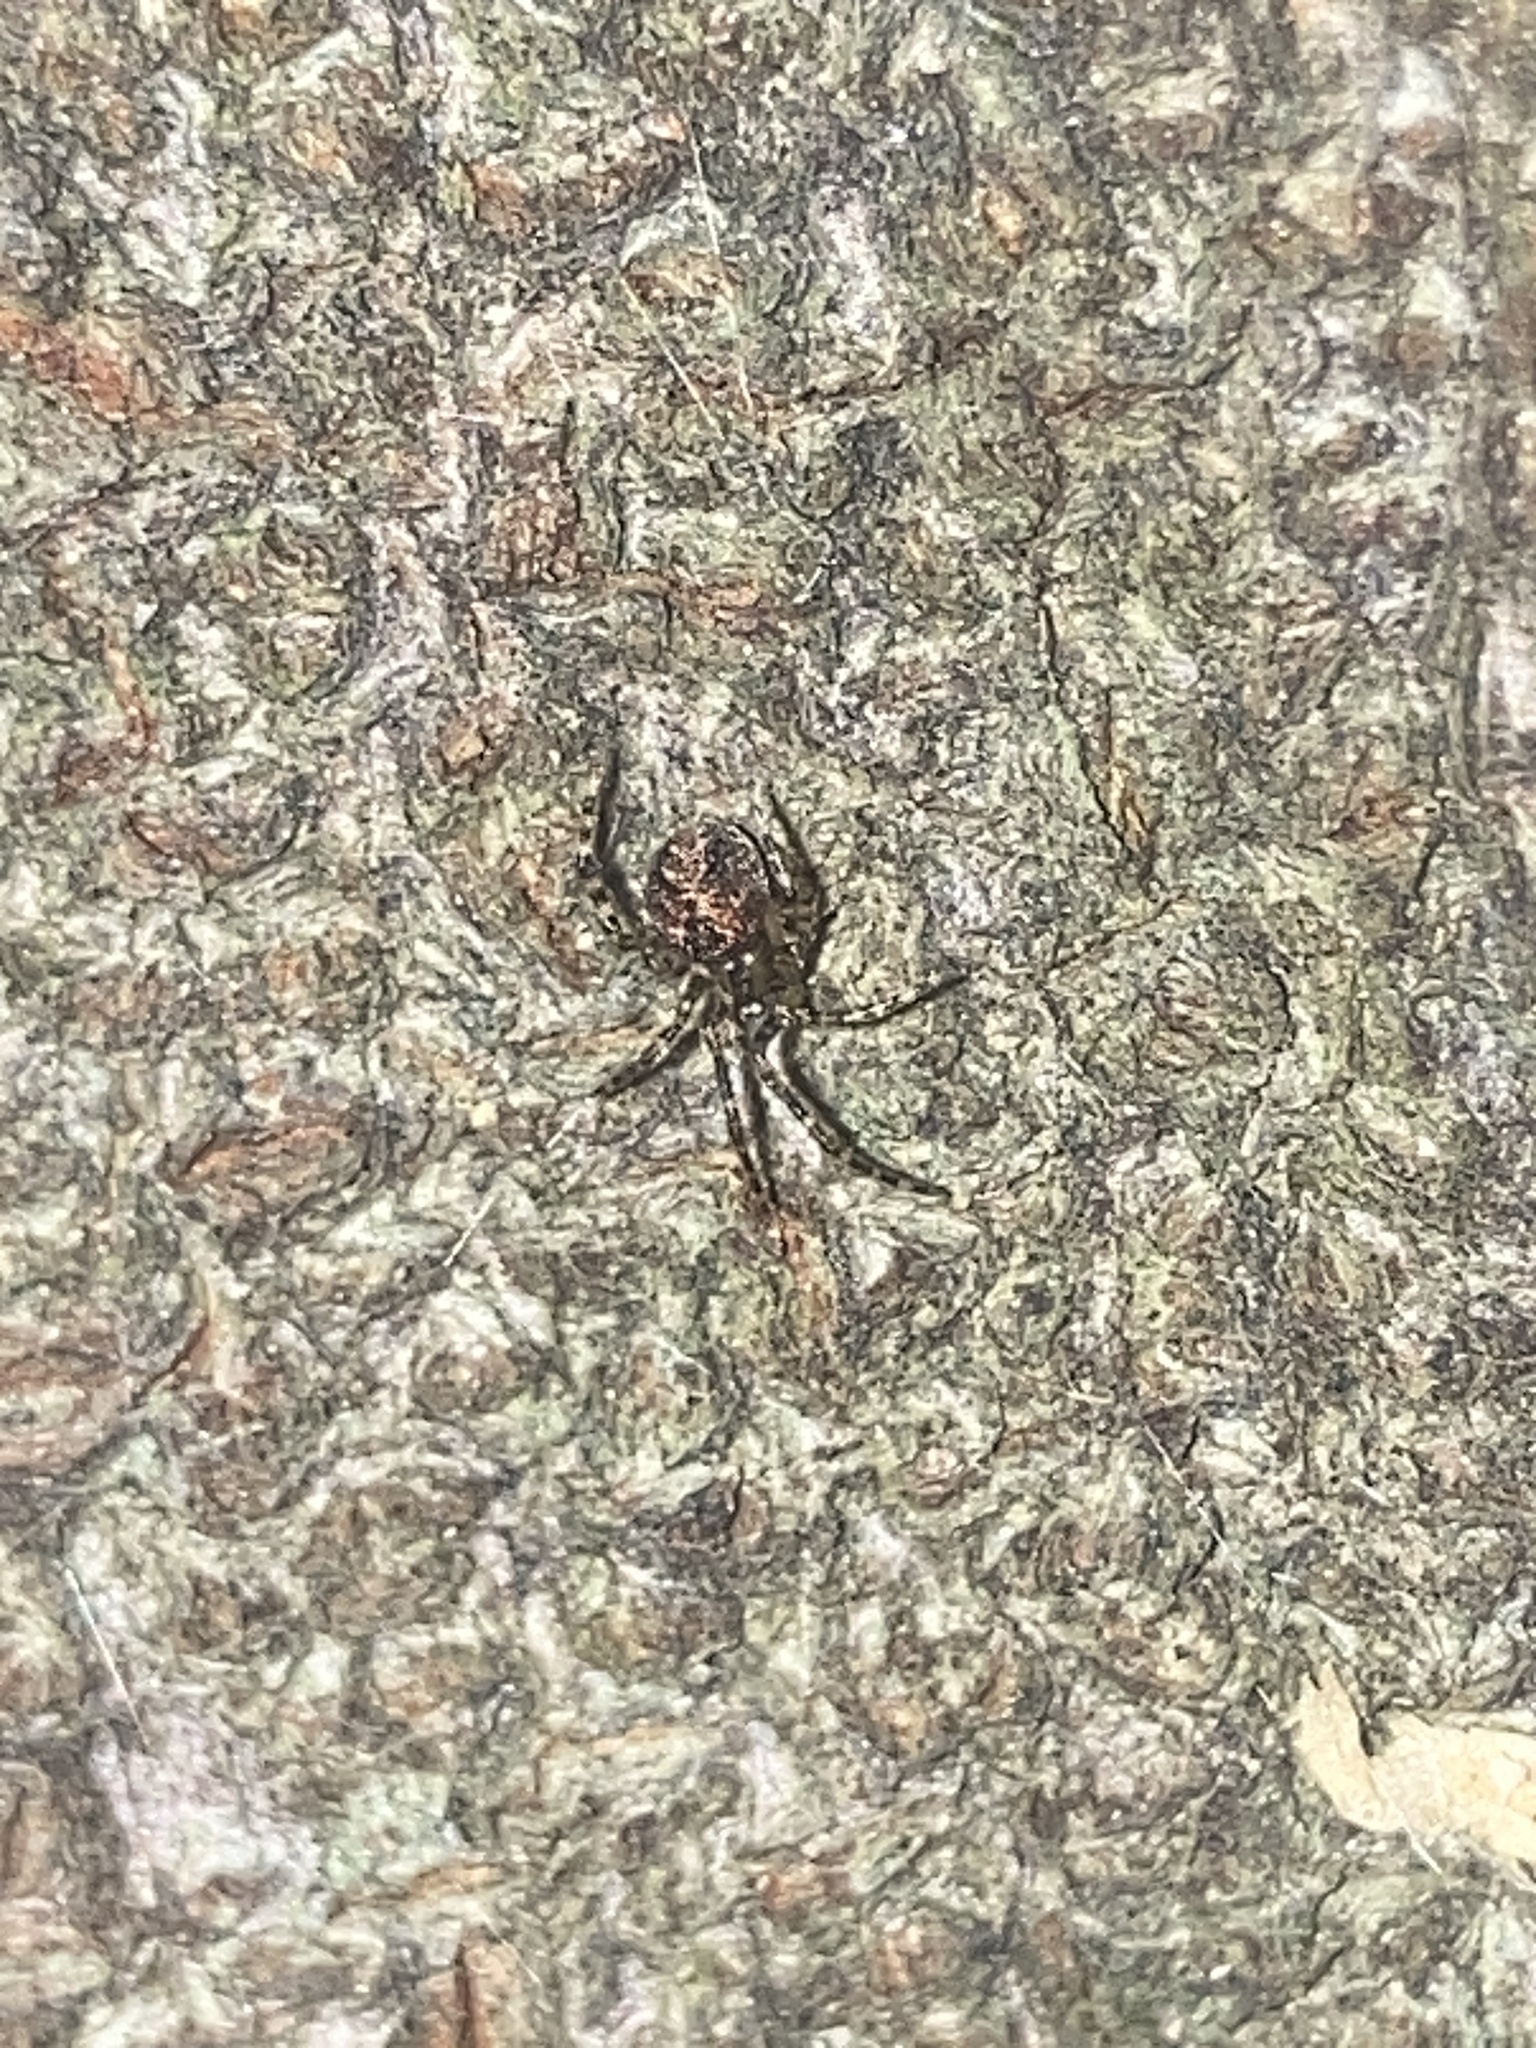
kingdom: Animalia
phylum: Arthropoda
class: Arachnida
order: Araneae
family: Theridiidae
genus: Cryptachaea
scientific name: Cryptachaea veruculata
